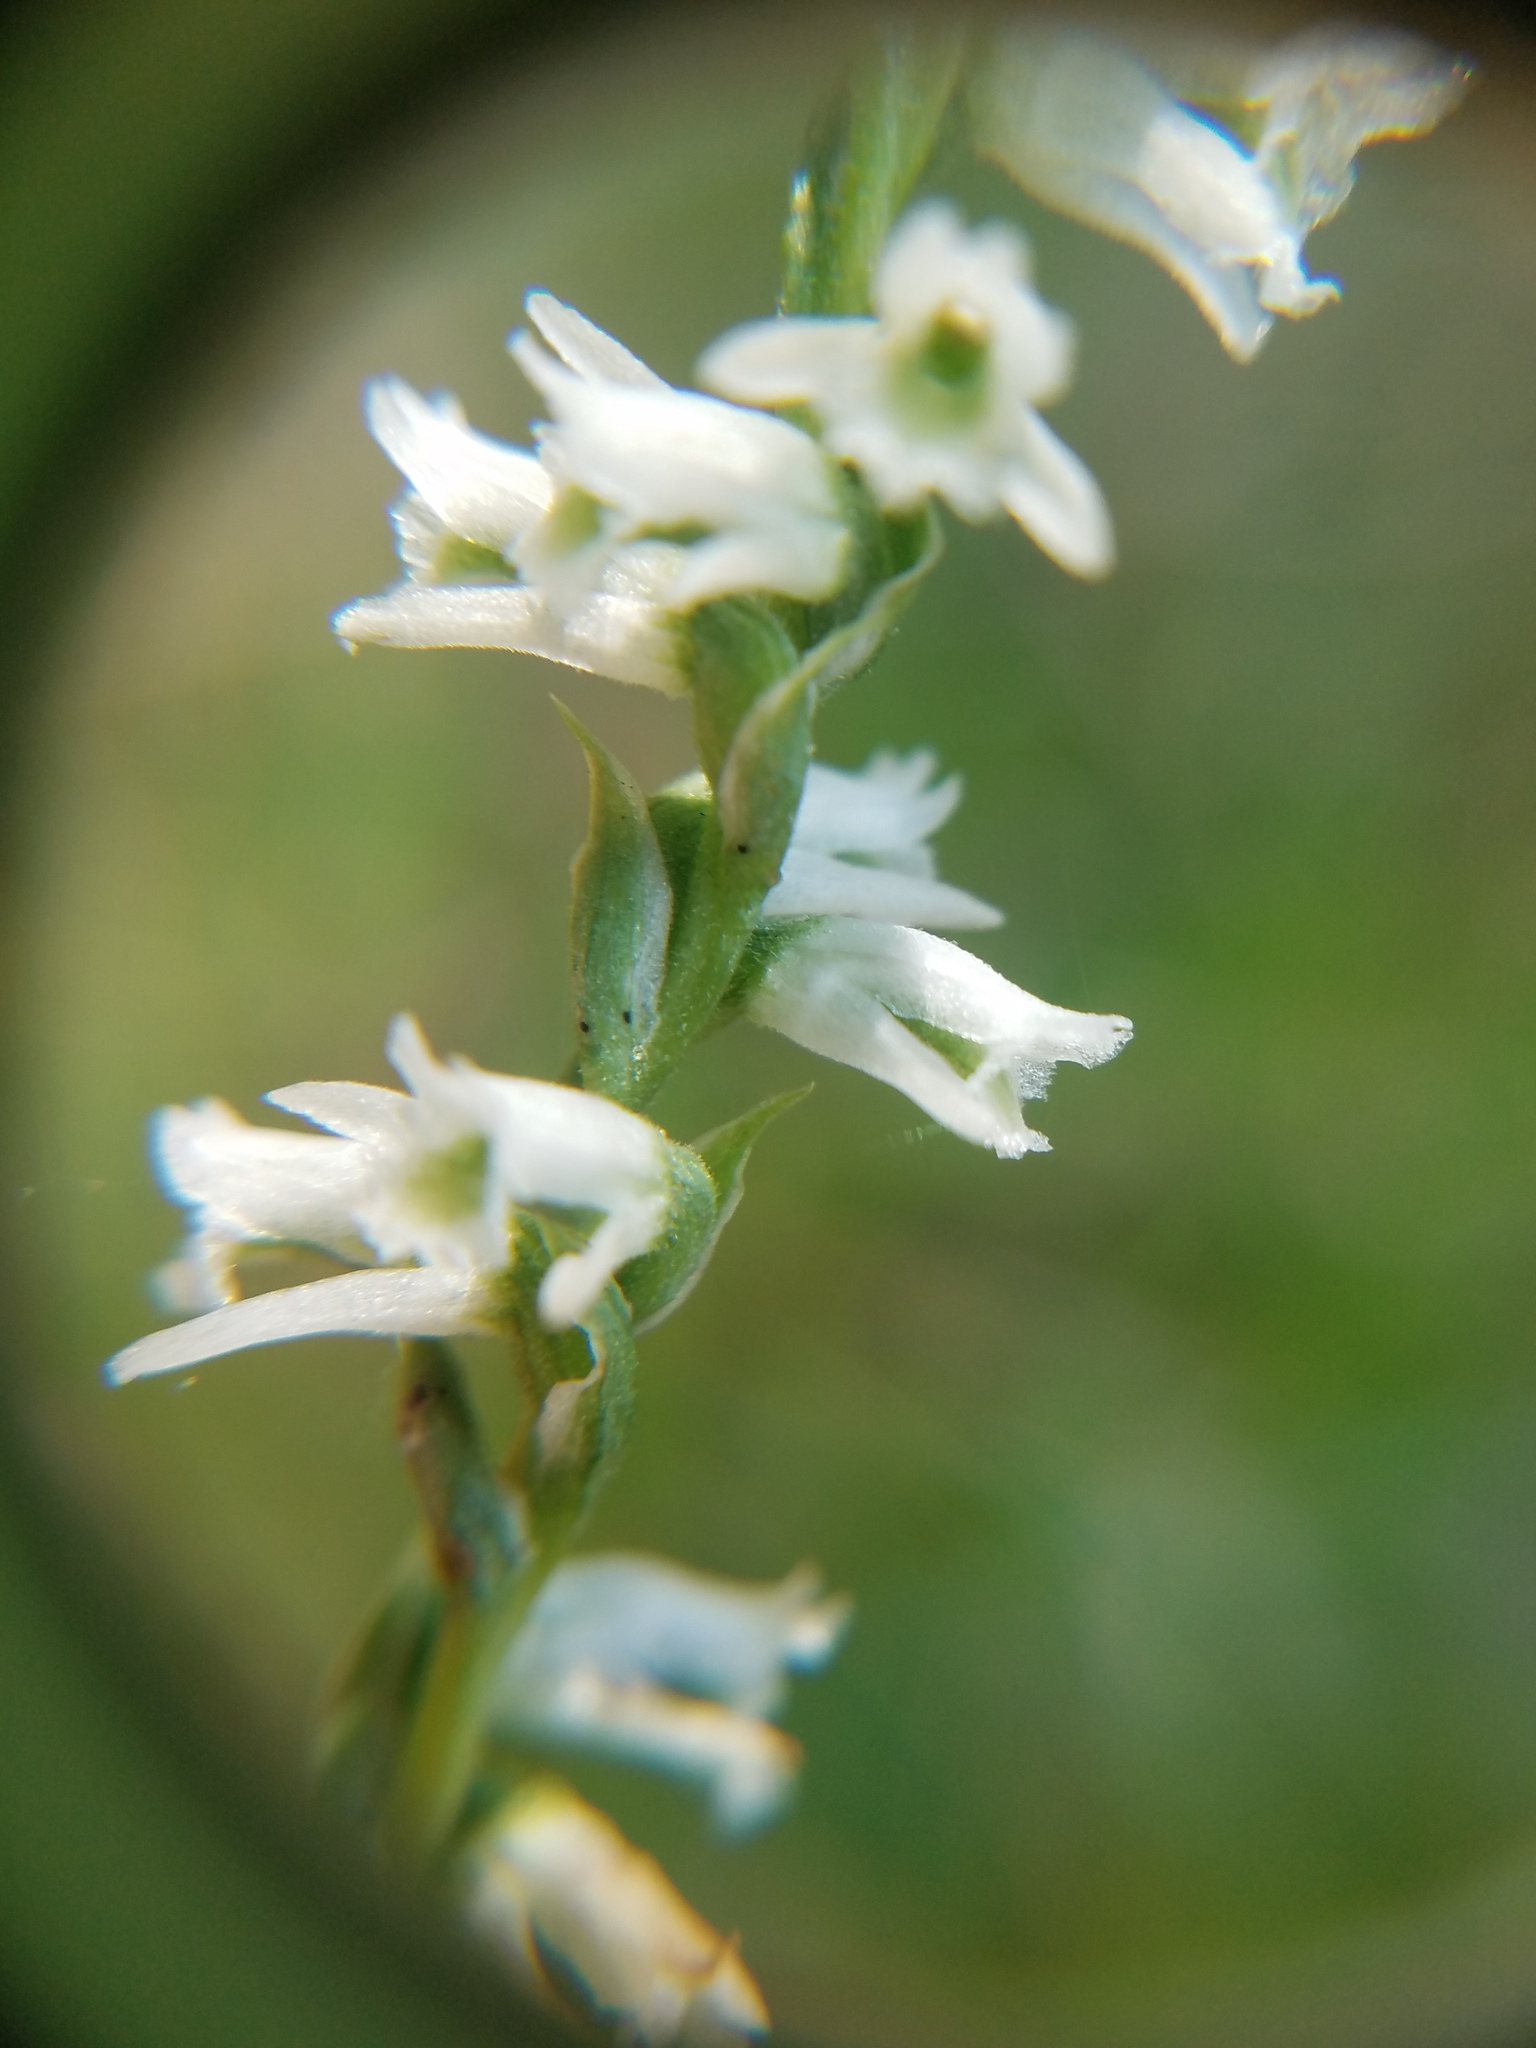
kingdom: Plantae
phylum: Tracheophyta
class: Liliopsida
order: Asparagales
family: Orchidaceae
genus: Spiranthes
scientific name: Spiranthes lacera
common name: Northern slender ladies'-tresses
